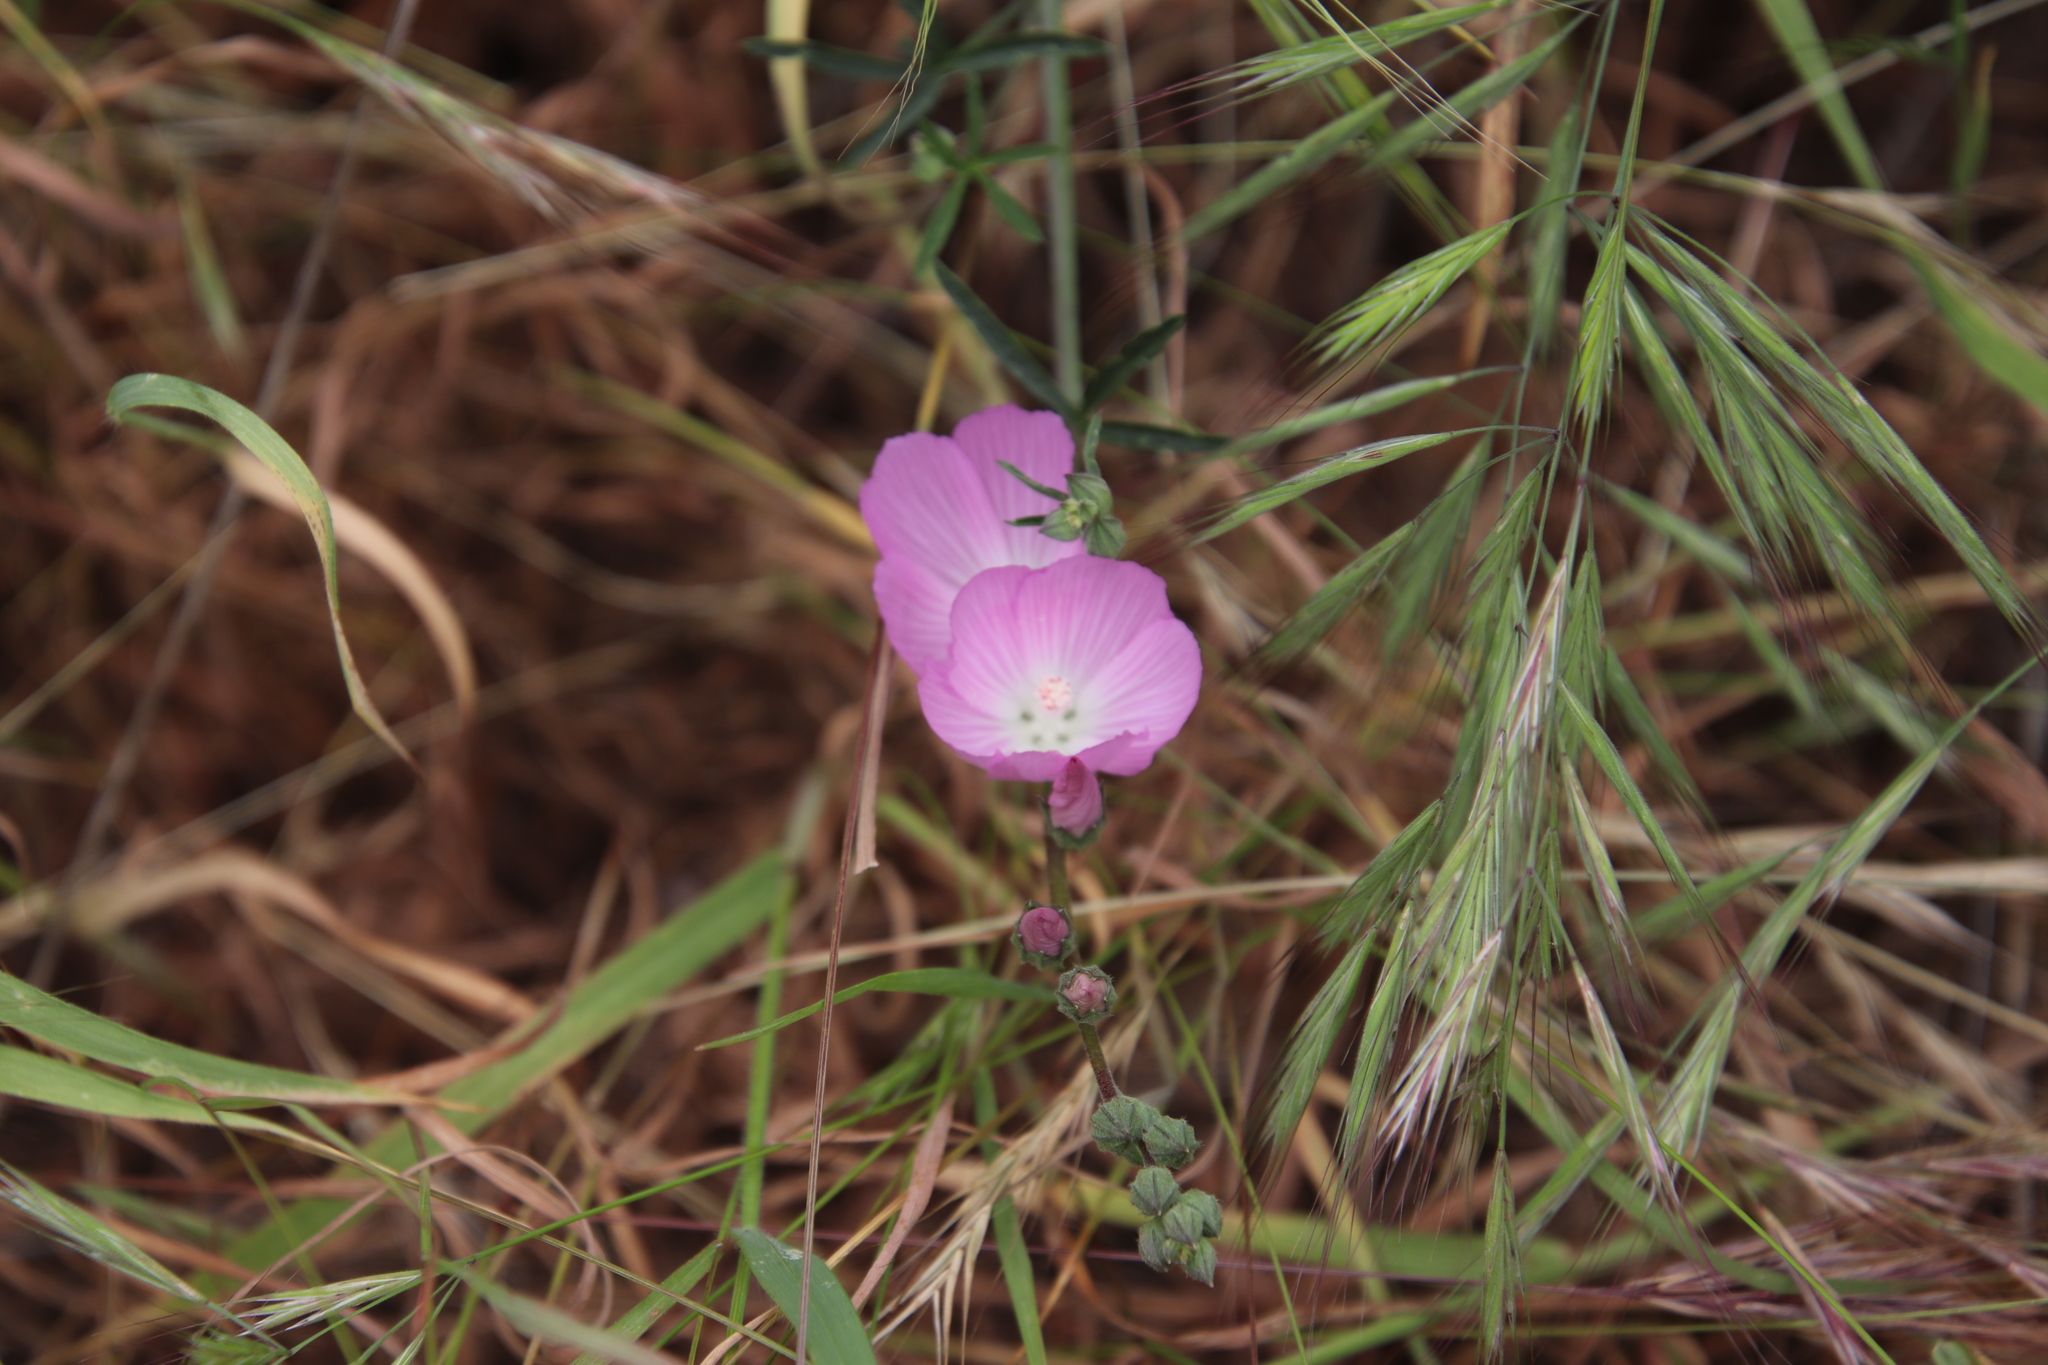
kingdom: Plantae
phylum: Tracheophyta
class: Magnoliopsida
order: Malvales
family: Malvaceae
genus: Sidalcea
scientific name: Sidalcea sparsifolia
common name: Southern checkerbloom
